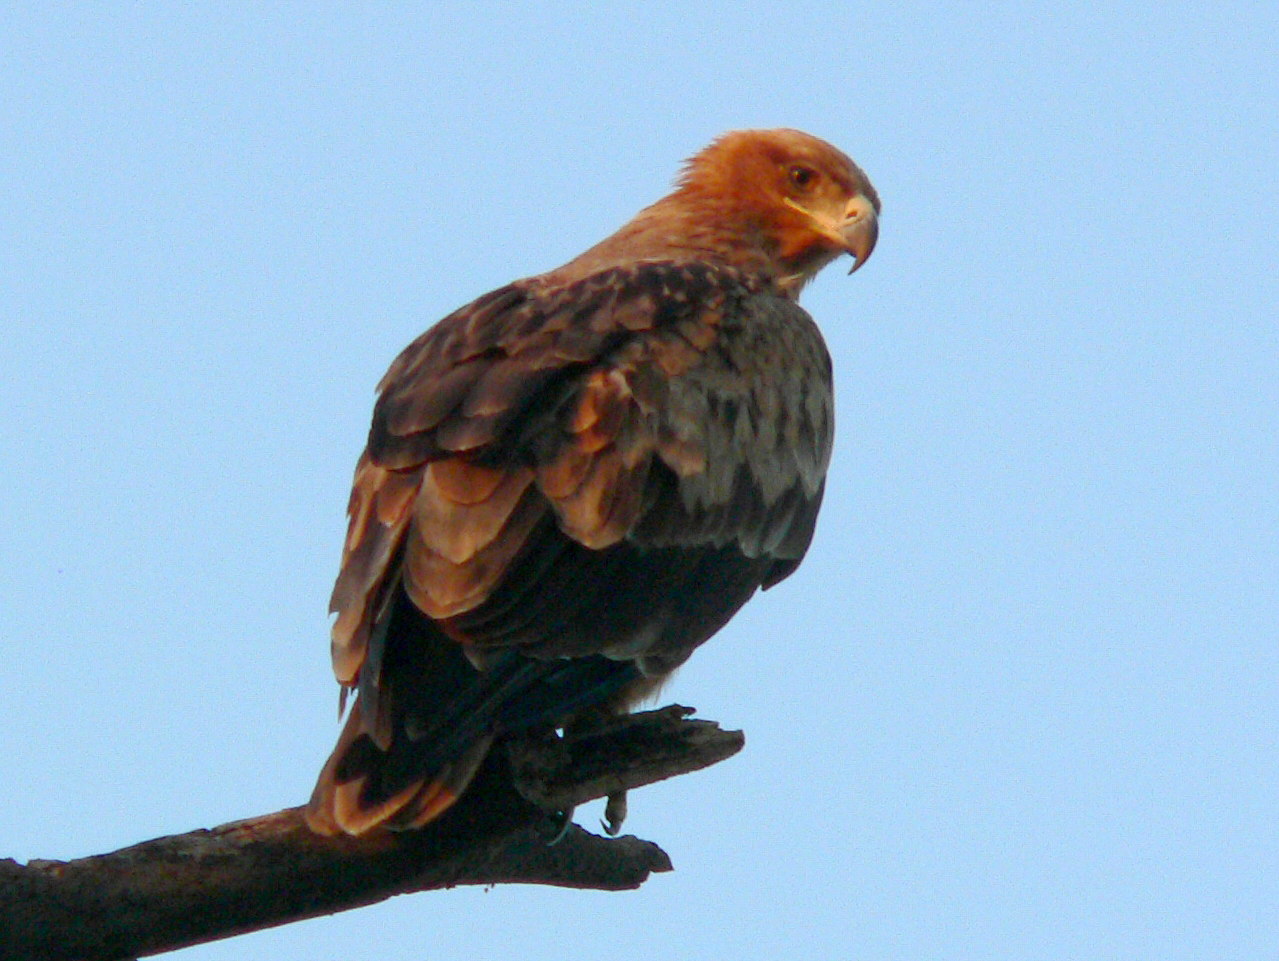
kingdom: Animalia
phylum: Chordata
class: Aves
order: Accipitriformes
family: Accipitridae
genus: Aquila
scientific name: Aquila rapax
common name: Tawny eagle
